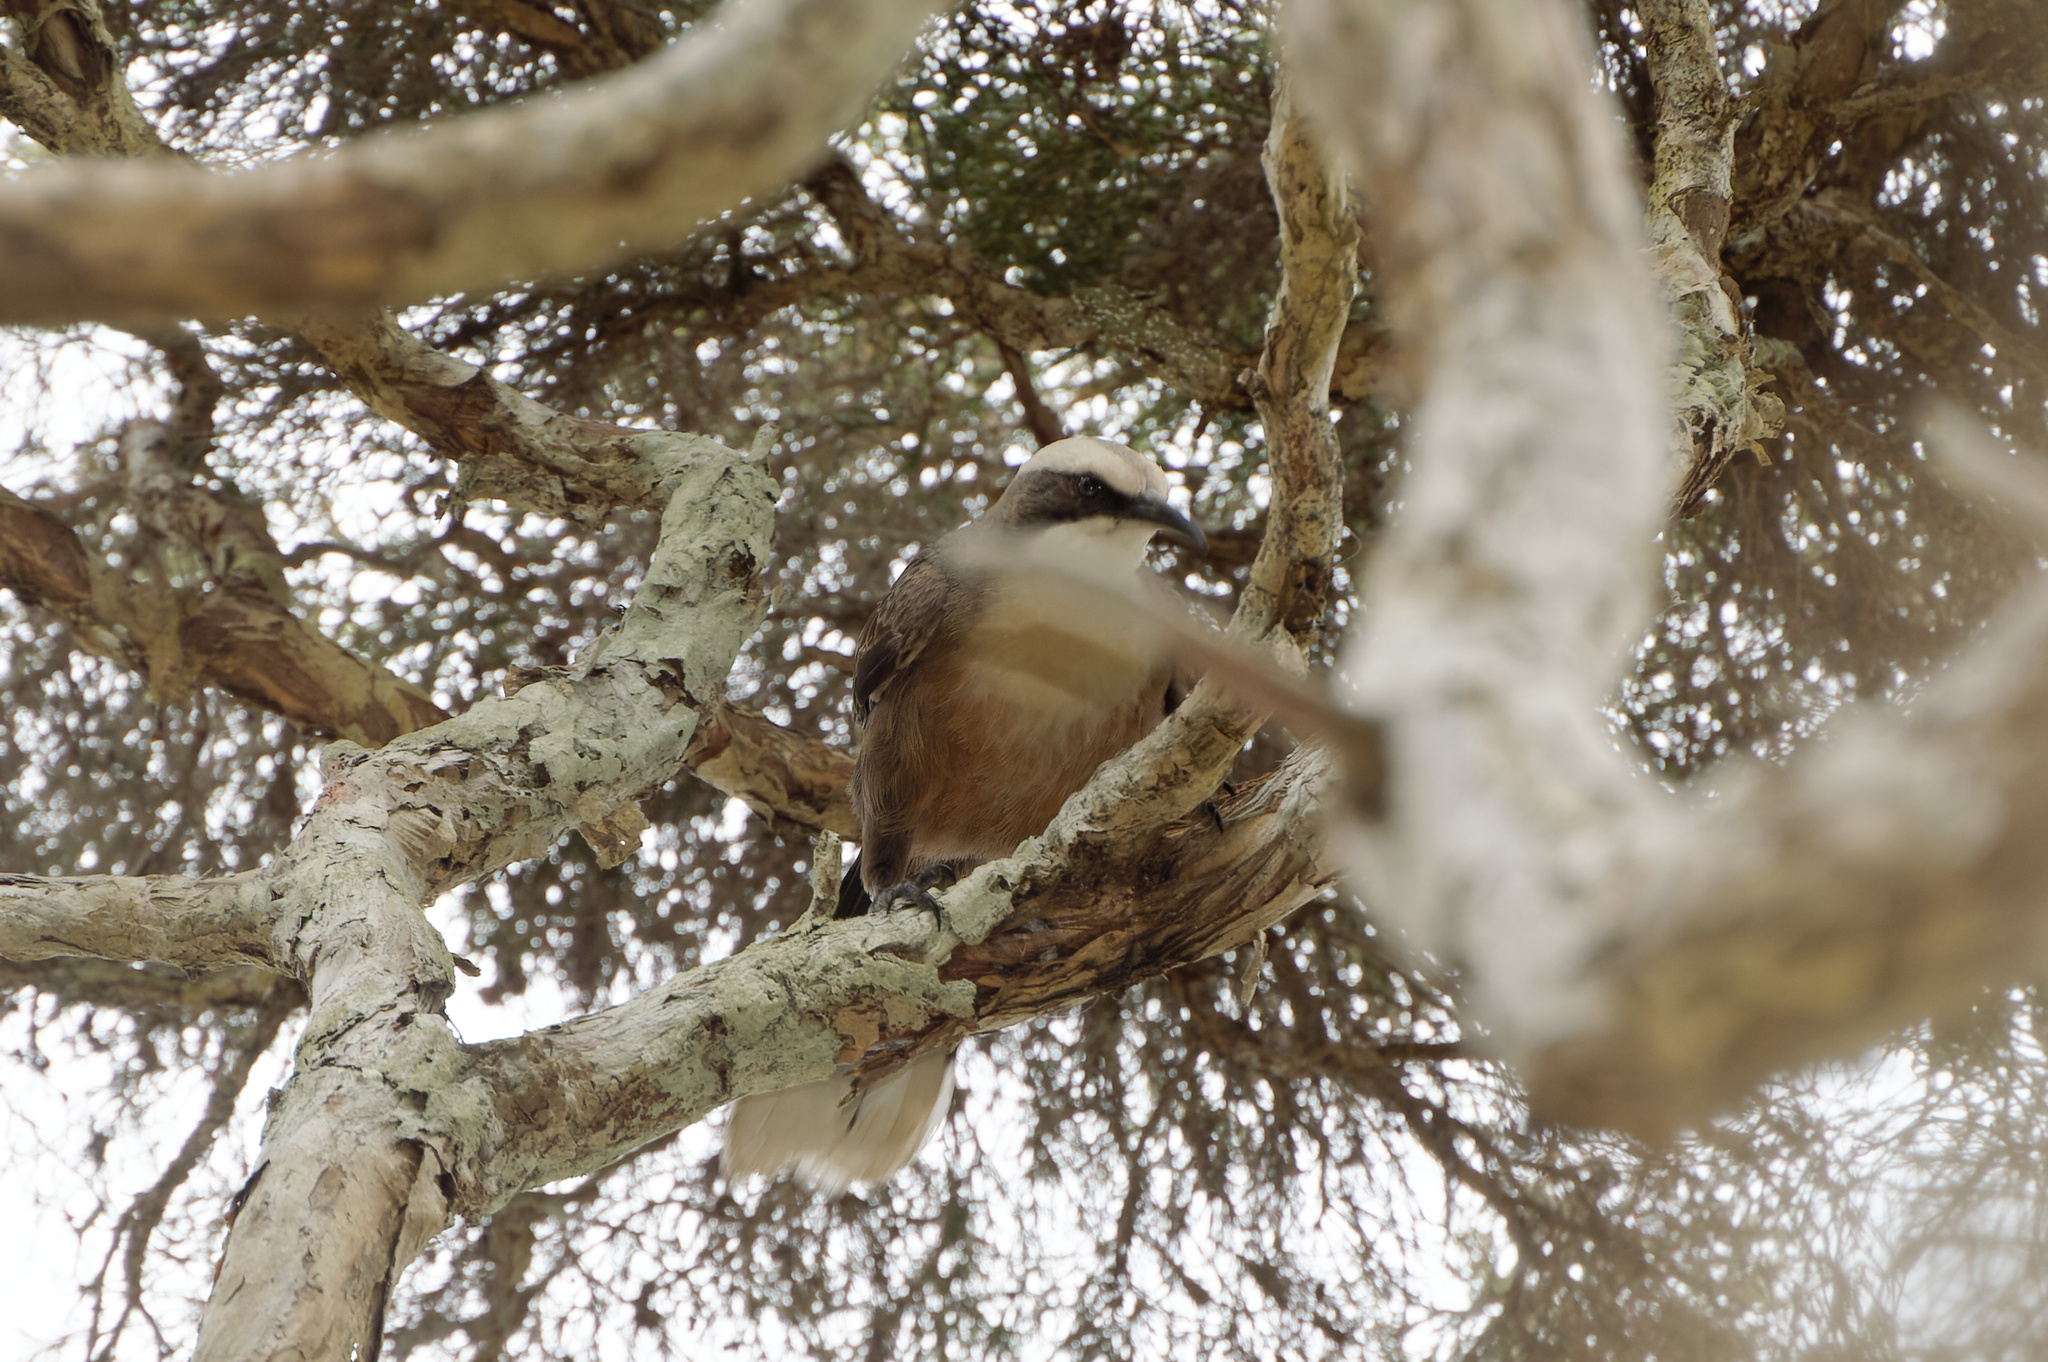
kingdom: Animalia
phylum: Chordata
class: Aves
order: Passeriformes
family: Pomatostomidae
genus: Pomatostomus
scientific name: Pomatostomus temporalis
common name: Grey-crowned babbler
